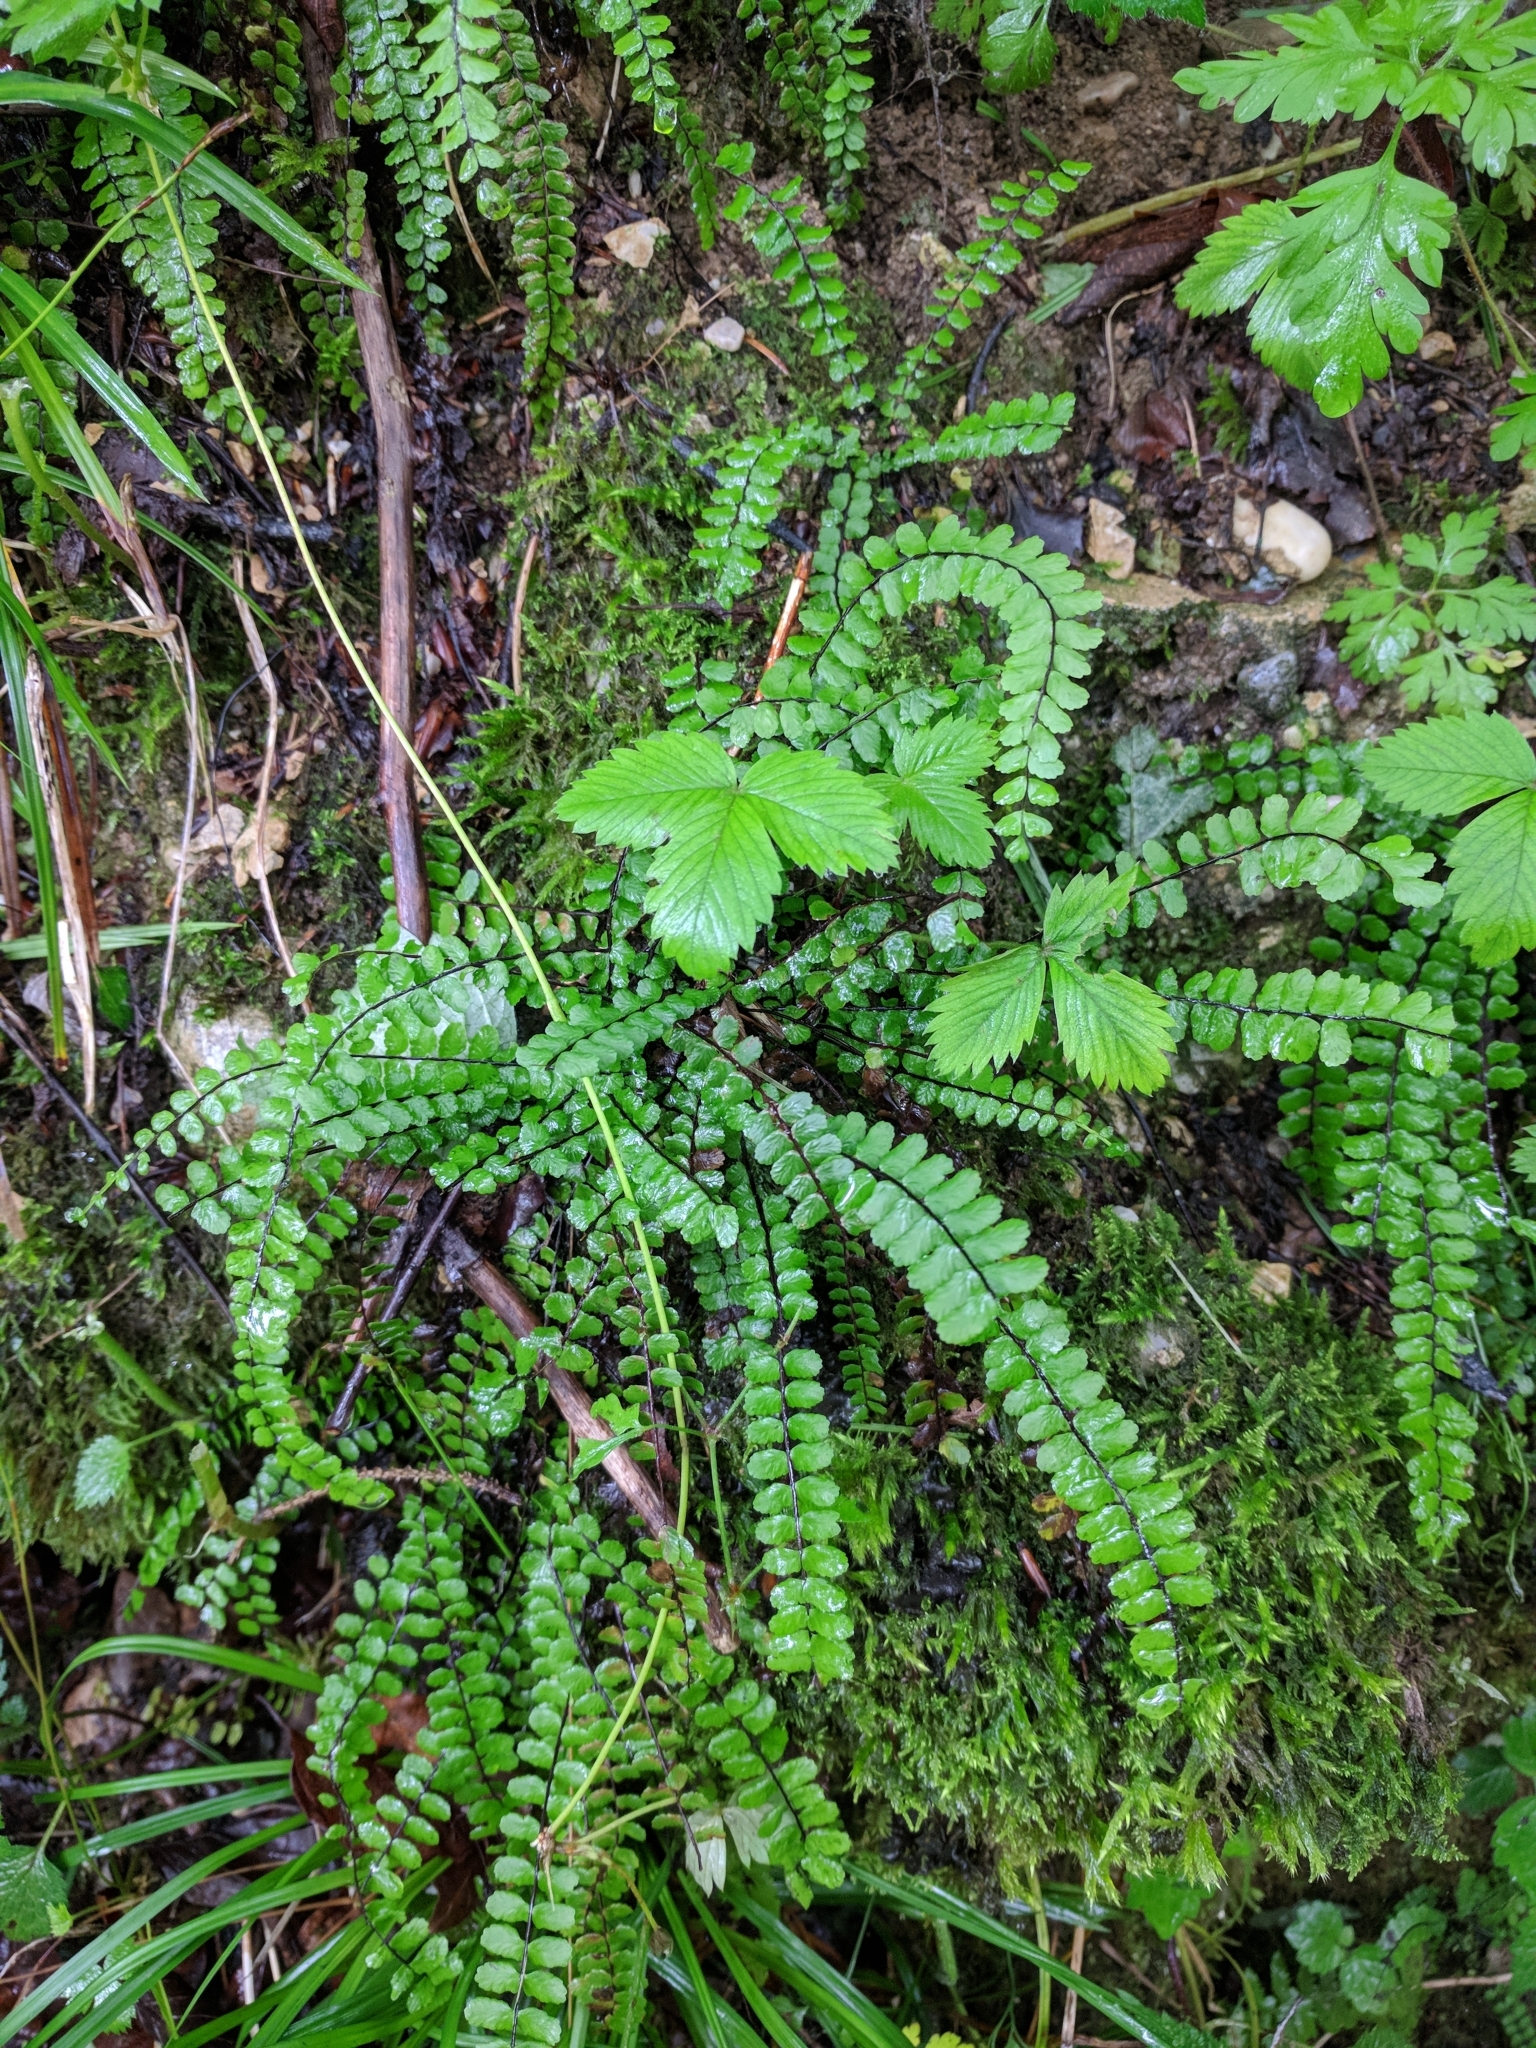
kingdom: Plantae
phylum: Tracheophyta
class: Polypodiopsida
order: Polypodiales
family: Aspleniaceae
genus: Asplenium
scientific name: Asplenium trichomanes
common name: Maidenhair spleenwort
